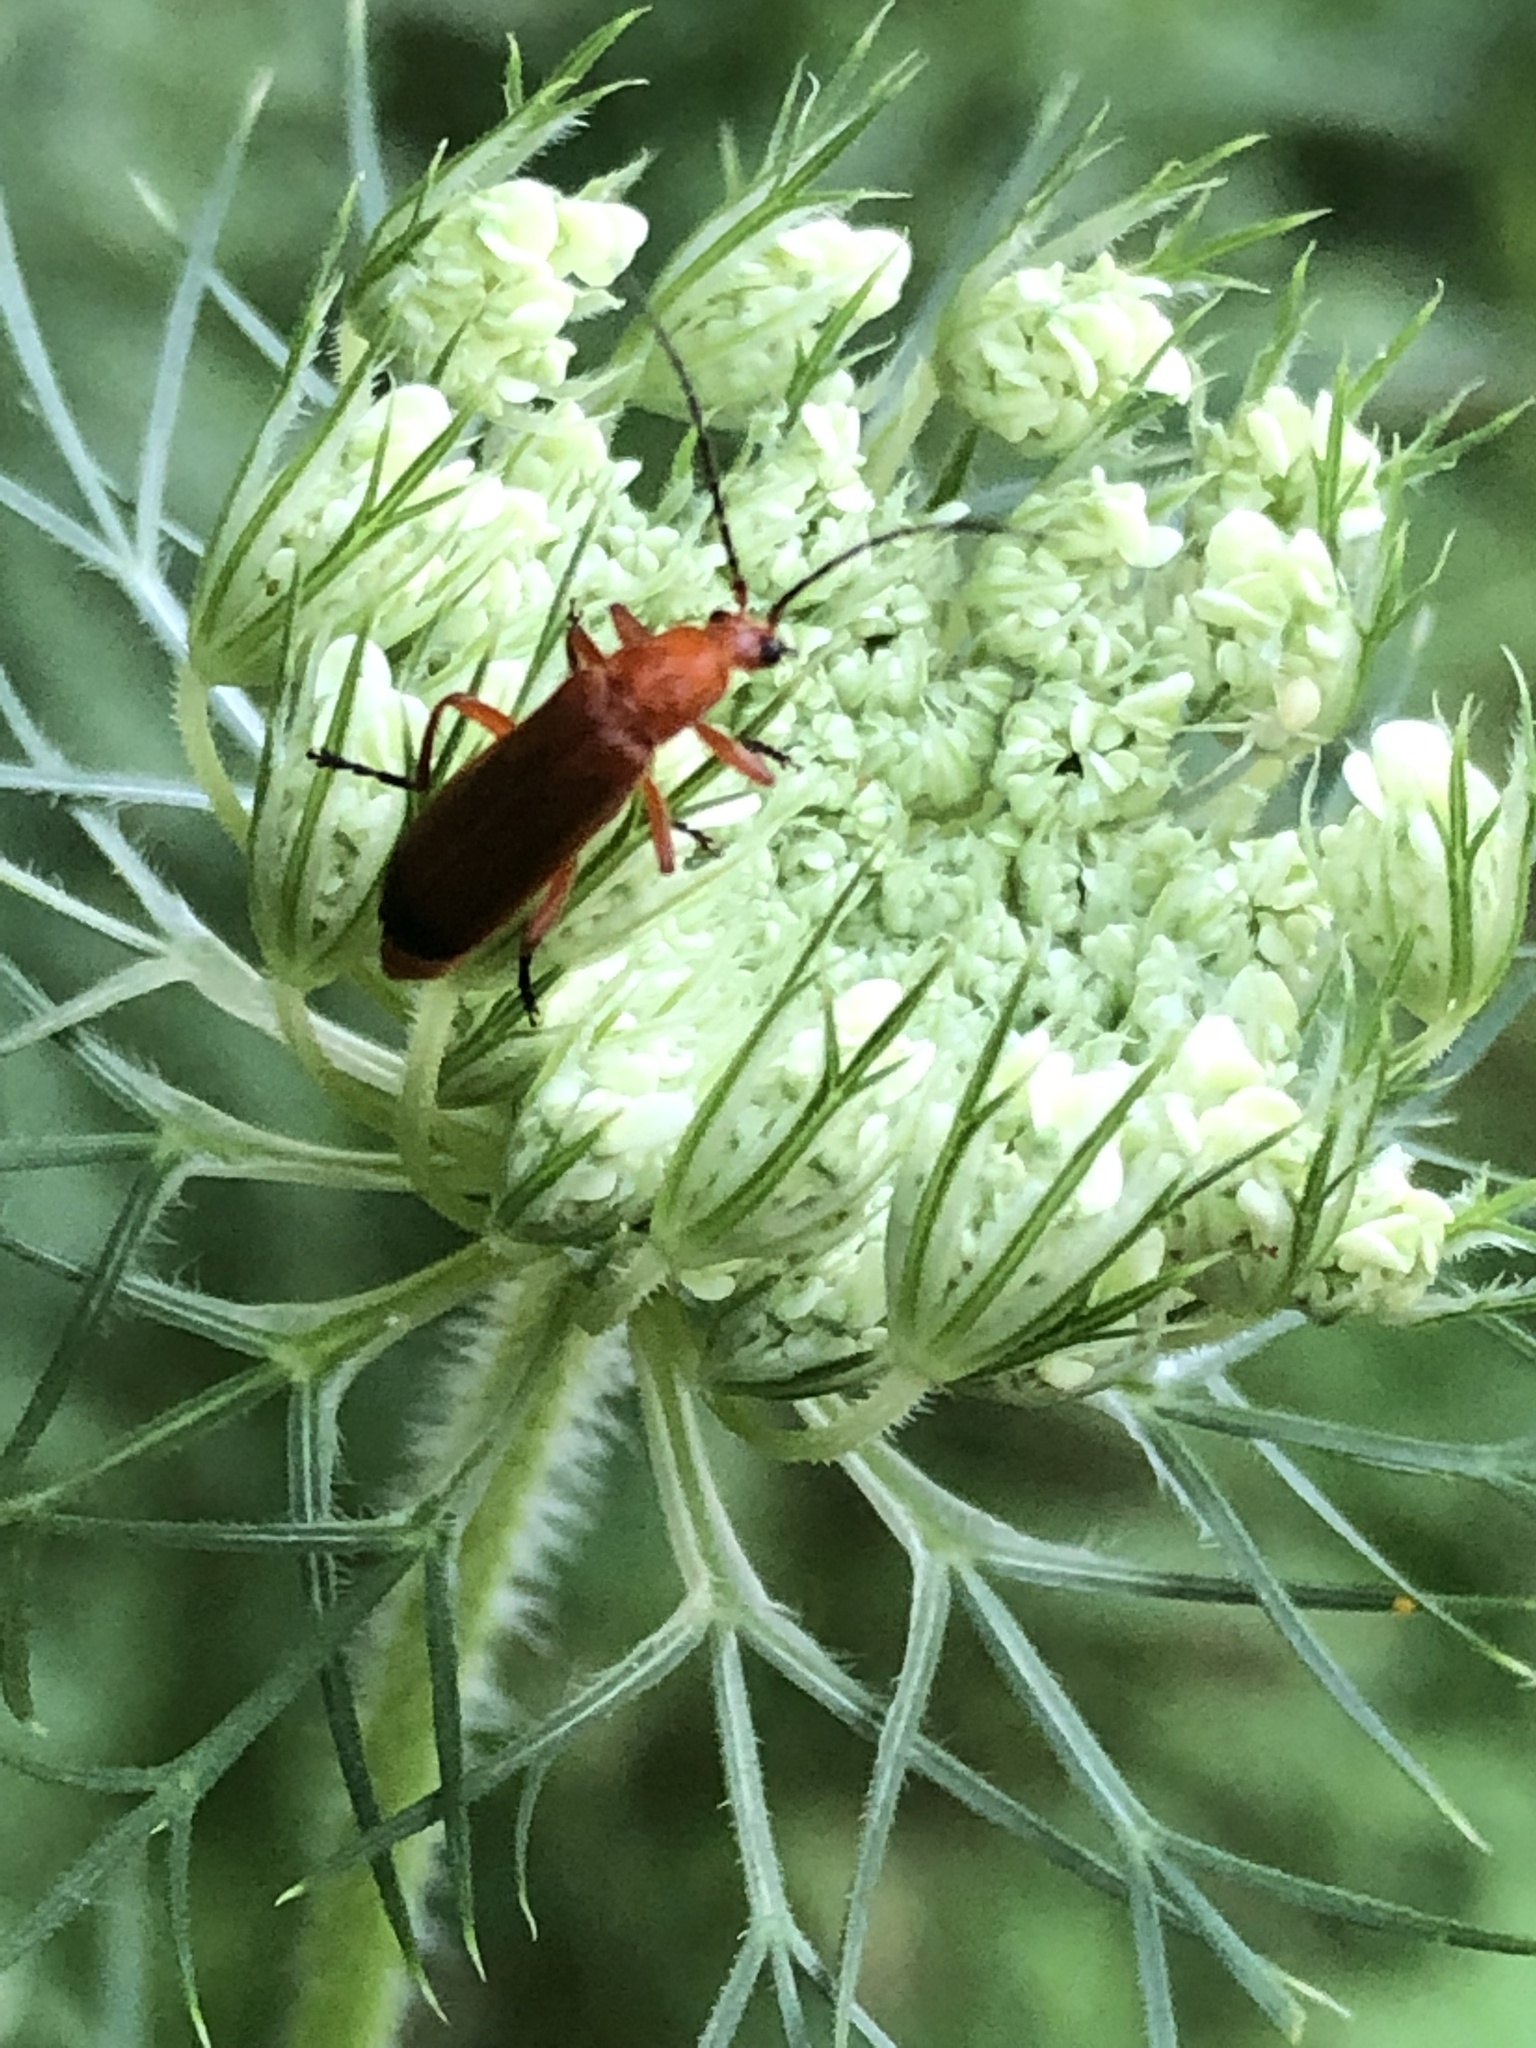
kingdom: Animalia
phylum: Arthropoda
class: Insecta
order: Coleoptera
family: Cantharidae
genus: Rhagonycha
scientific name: Rhagonycha fulva
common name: Common red soldier beetle
